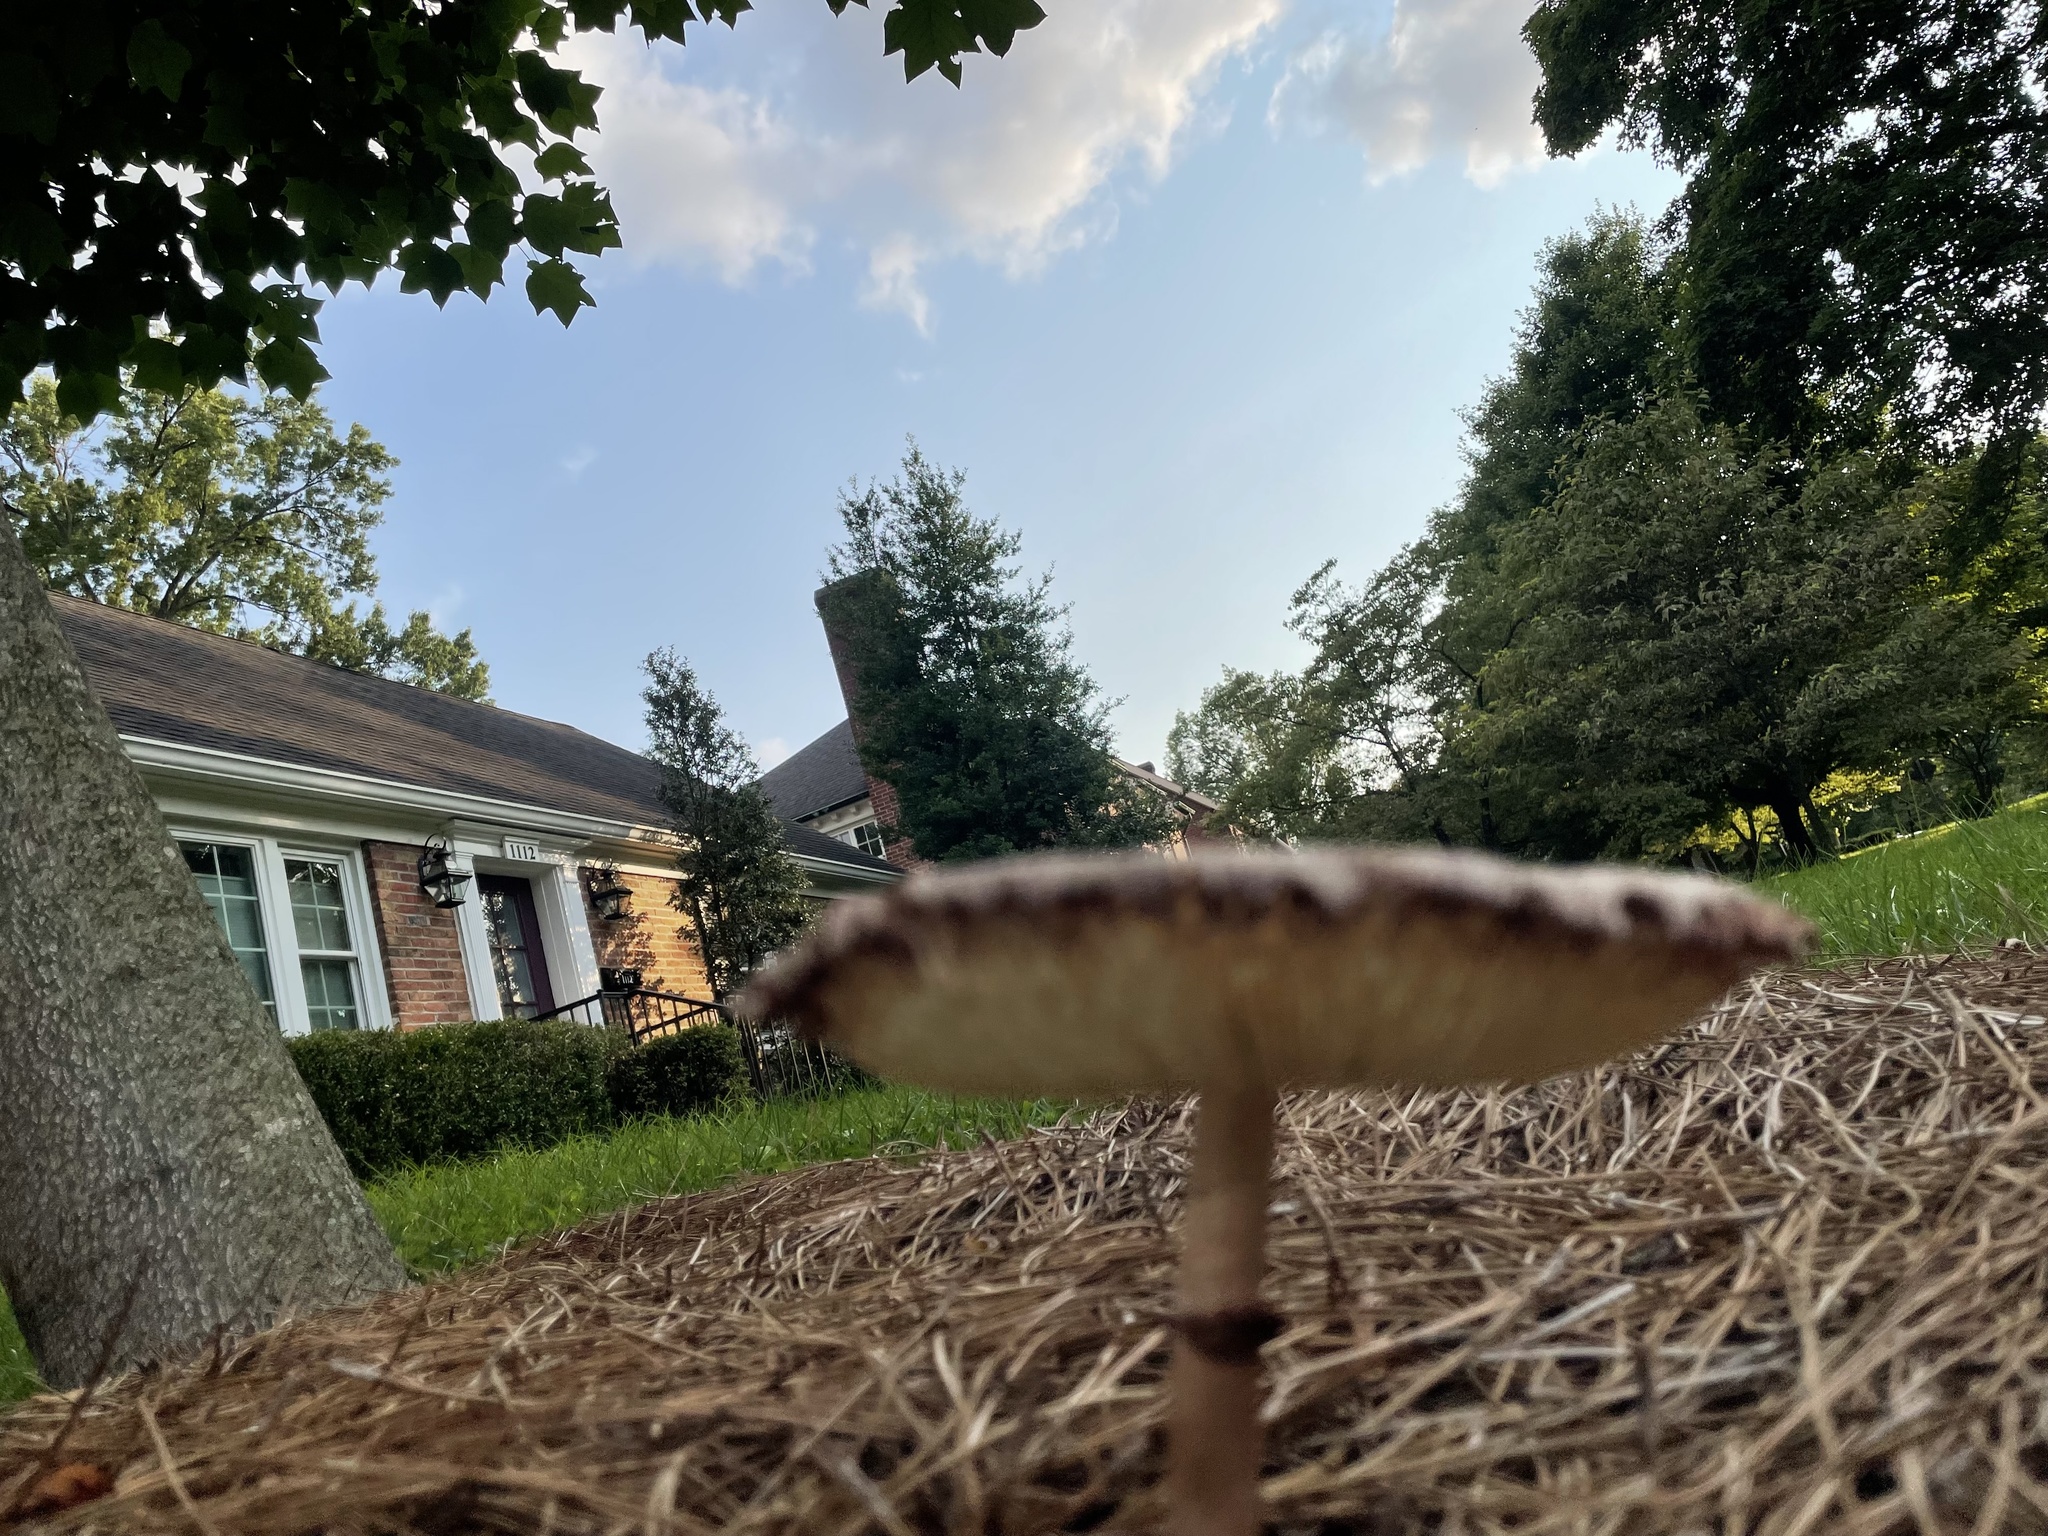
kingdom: Fungi
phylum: Basidiomycota
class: Agaricomycetes
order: Agaricales
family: Agaricaceae
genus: Leucoagaricus
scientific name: Leucoagaricus americanus
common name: Reddening lepiota
